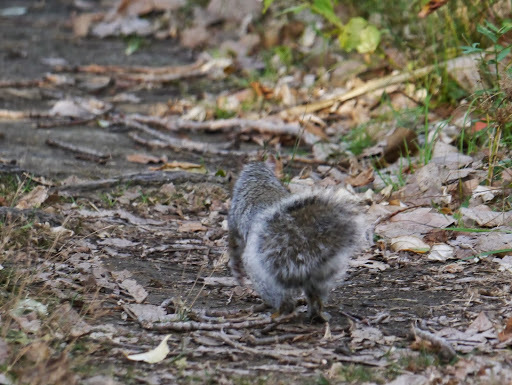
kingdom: Animalia
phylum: Chordata
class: Mammalia
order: Rodentia
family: Sciuridae
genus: Sciurus
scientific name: Sciurus carolinensis
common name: Eastern gray squirrel
